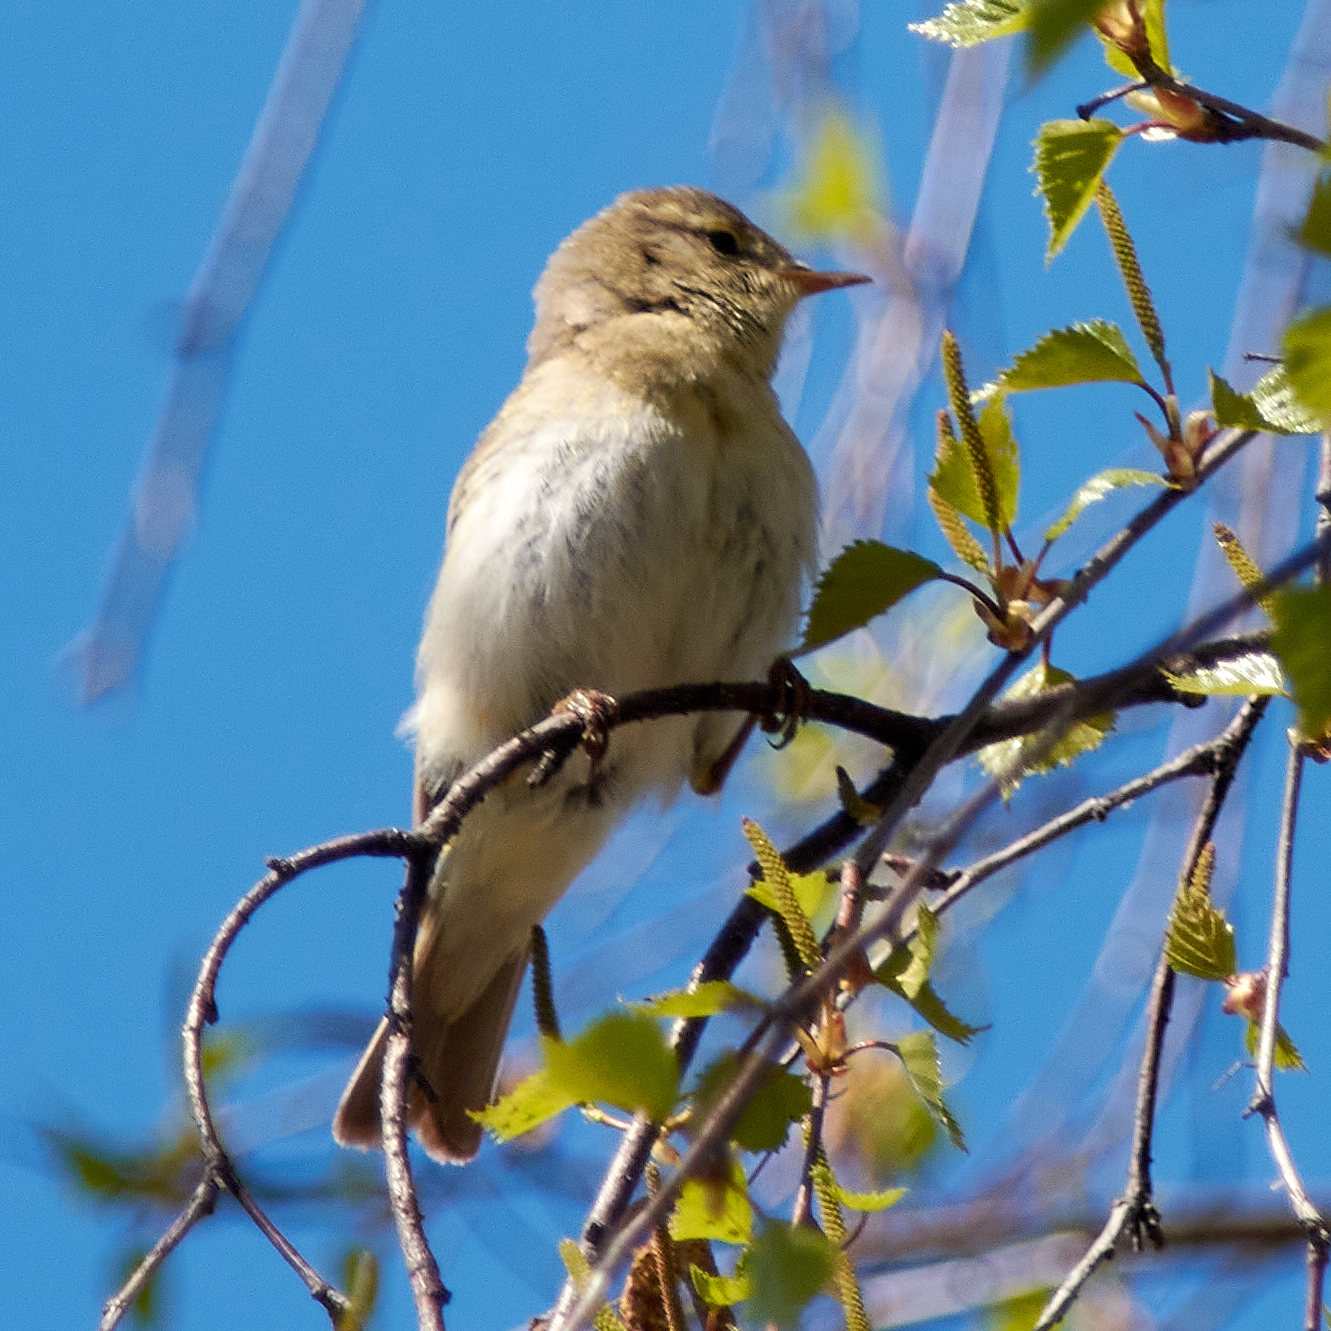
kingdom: Animalia
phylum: Chordata
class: Aves
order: Passeriformes
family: Phylloscopidae
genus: Phylloscopus
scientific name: Phylloscopus trochilus
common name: Willow warbler
